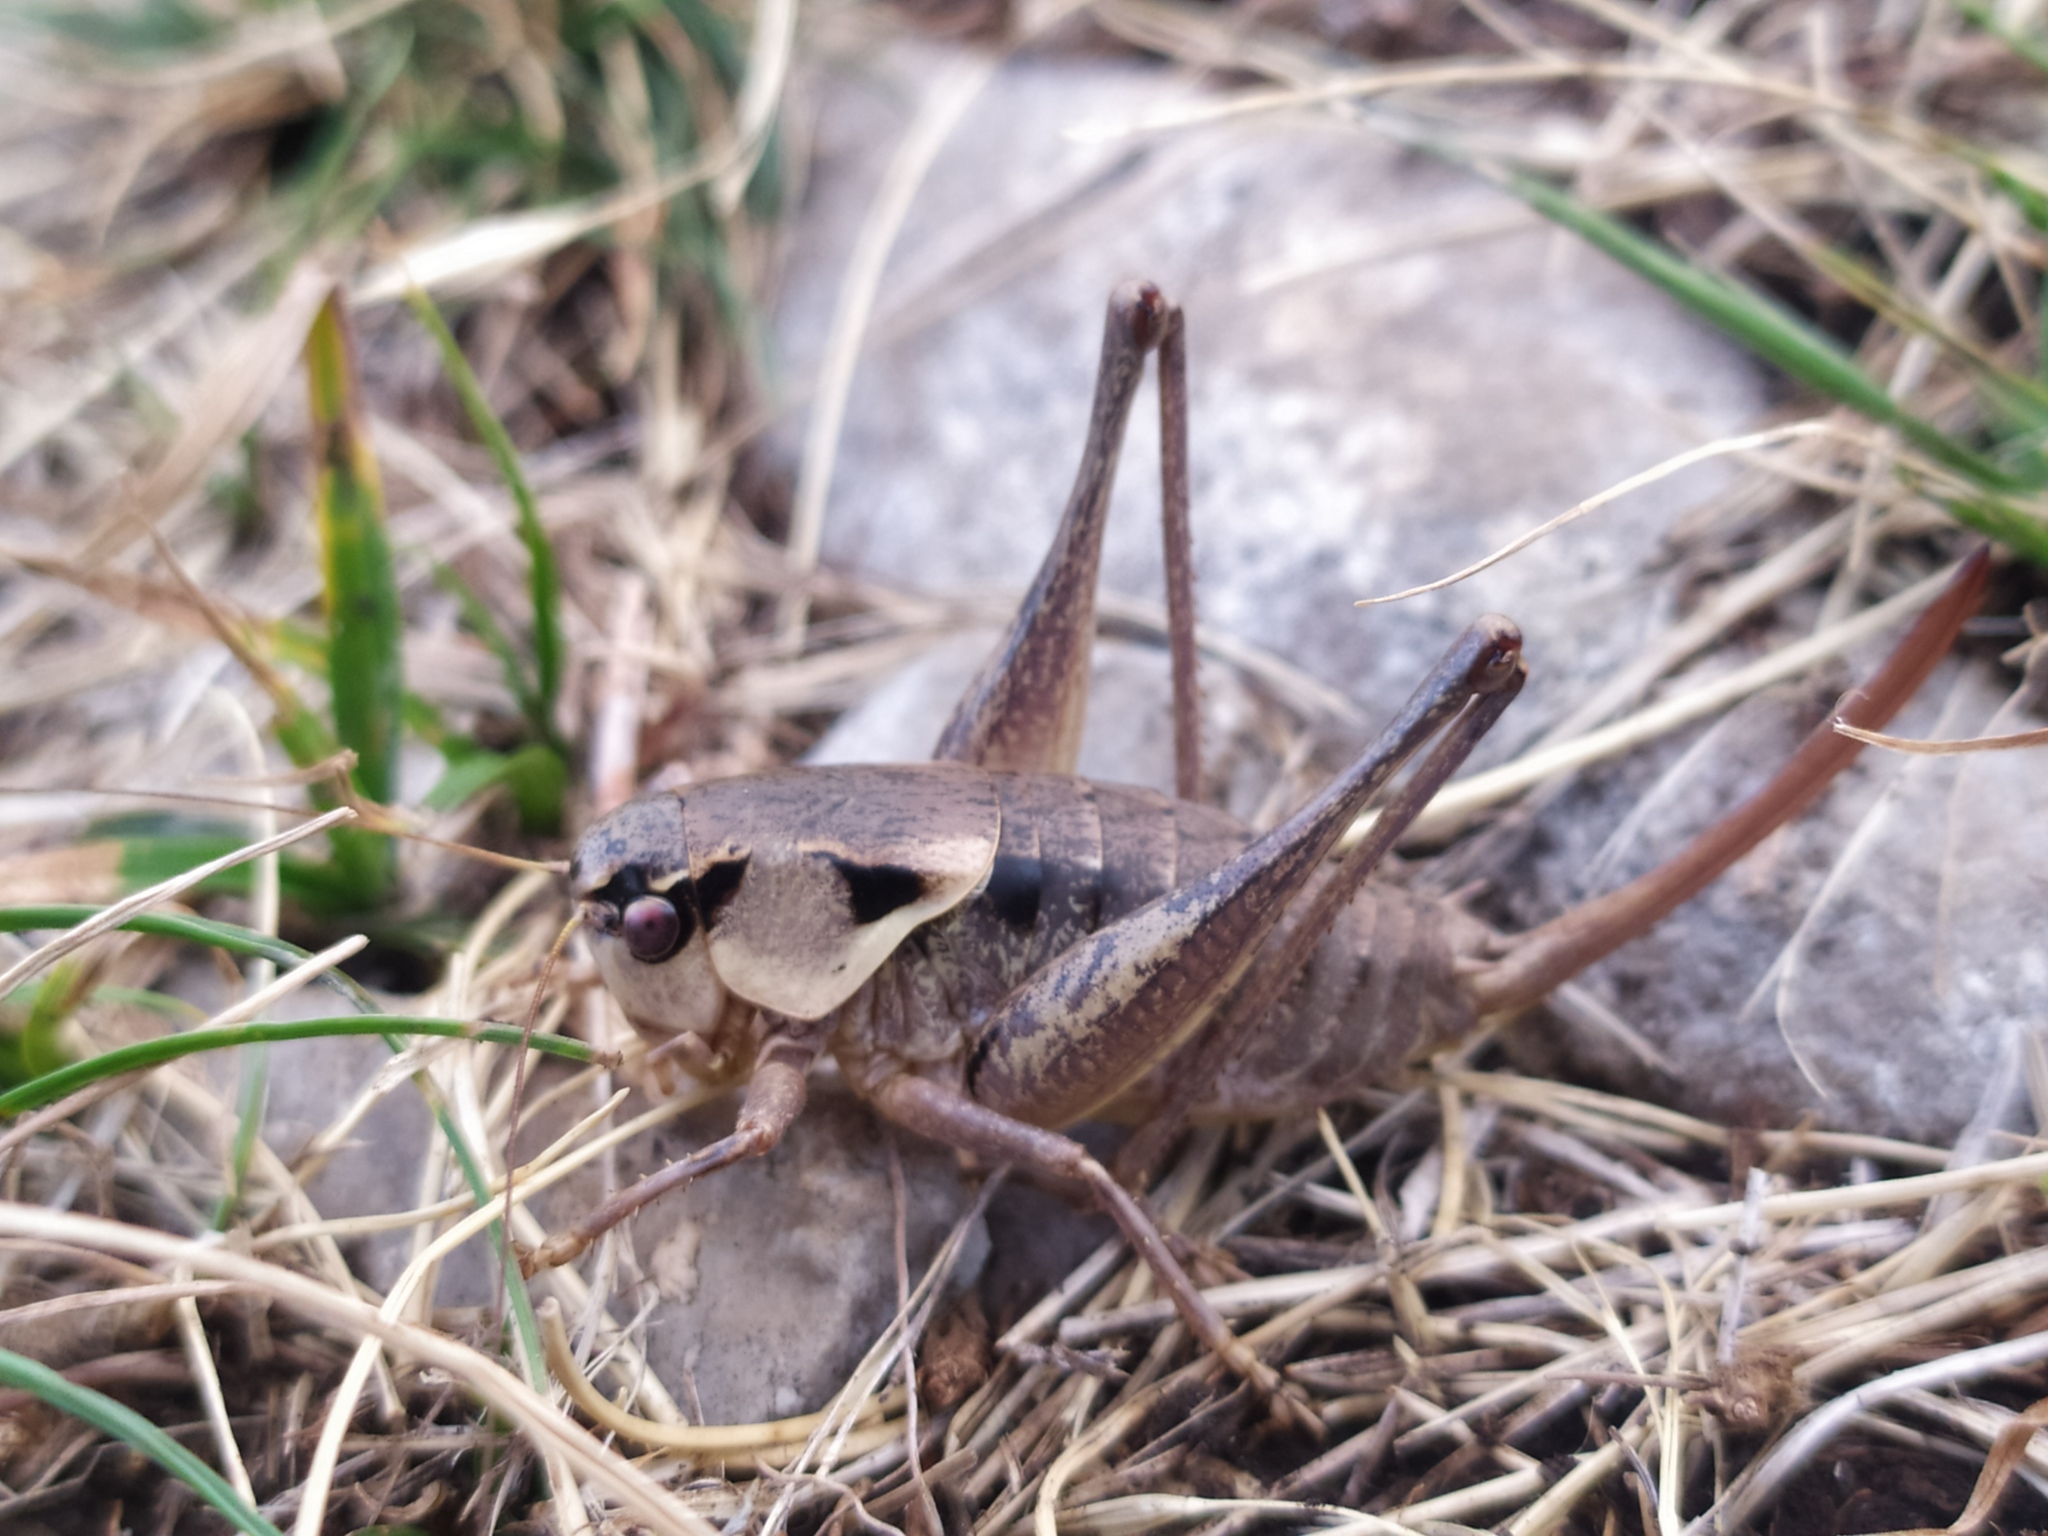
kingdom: Animalia
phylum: Arthropoda
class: Insecta
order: Orthoptera
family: Tettigoniidae
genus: Pholidoptera
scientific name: Pholidoptera dalmatica
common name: Dalmatian dark bush-cricket
